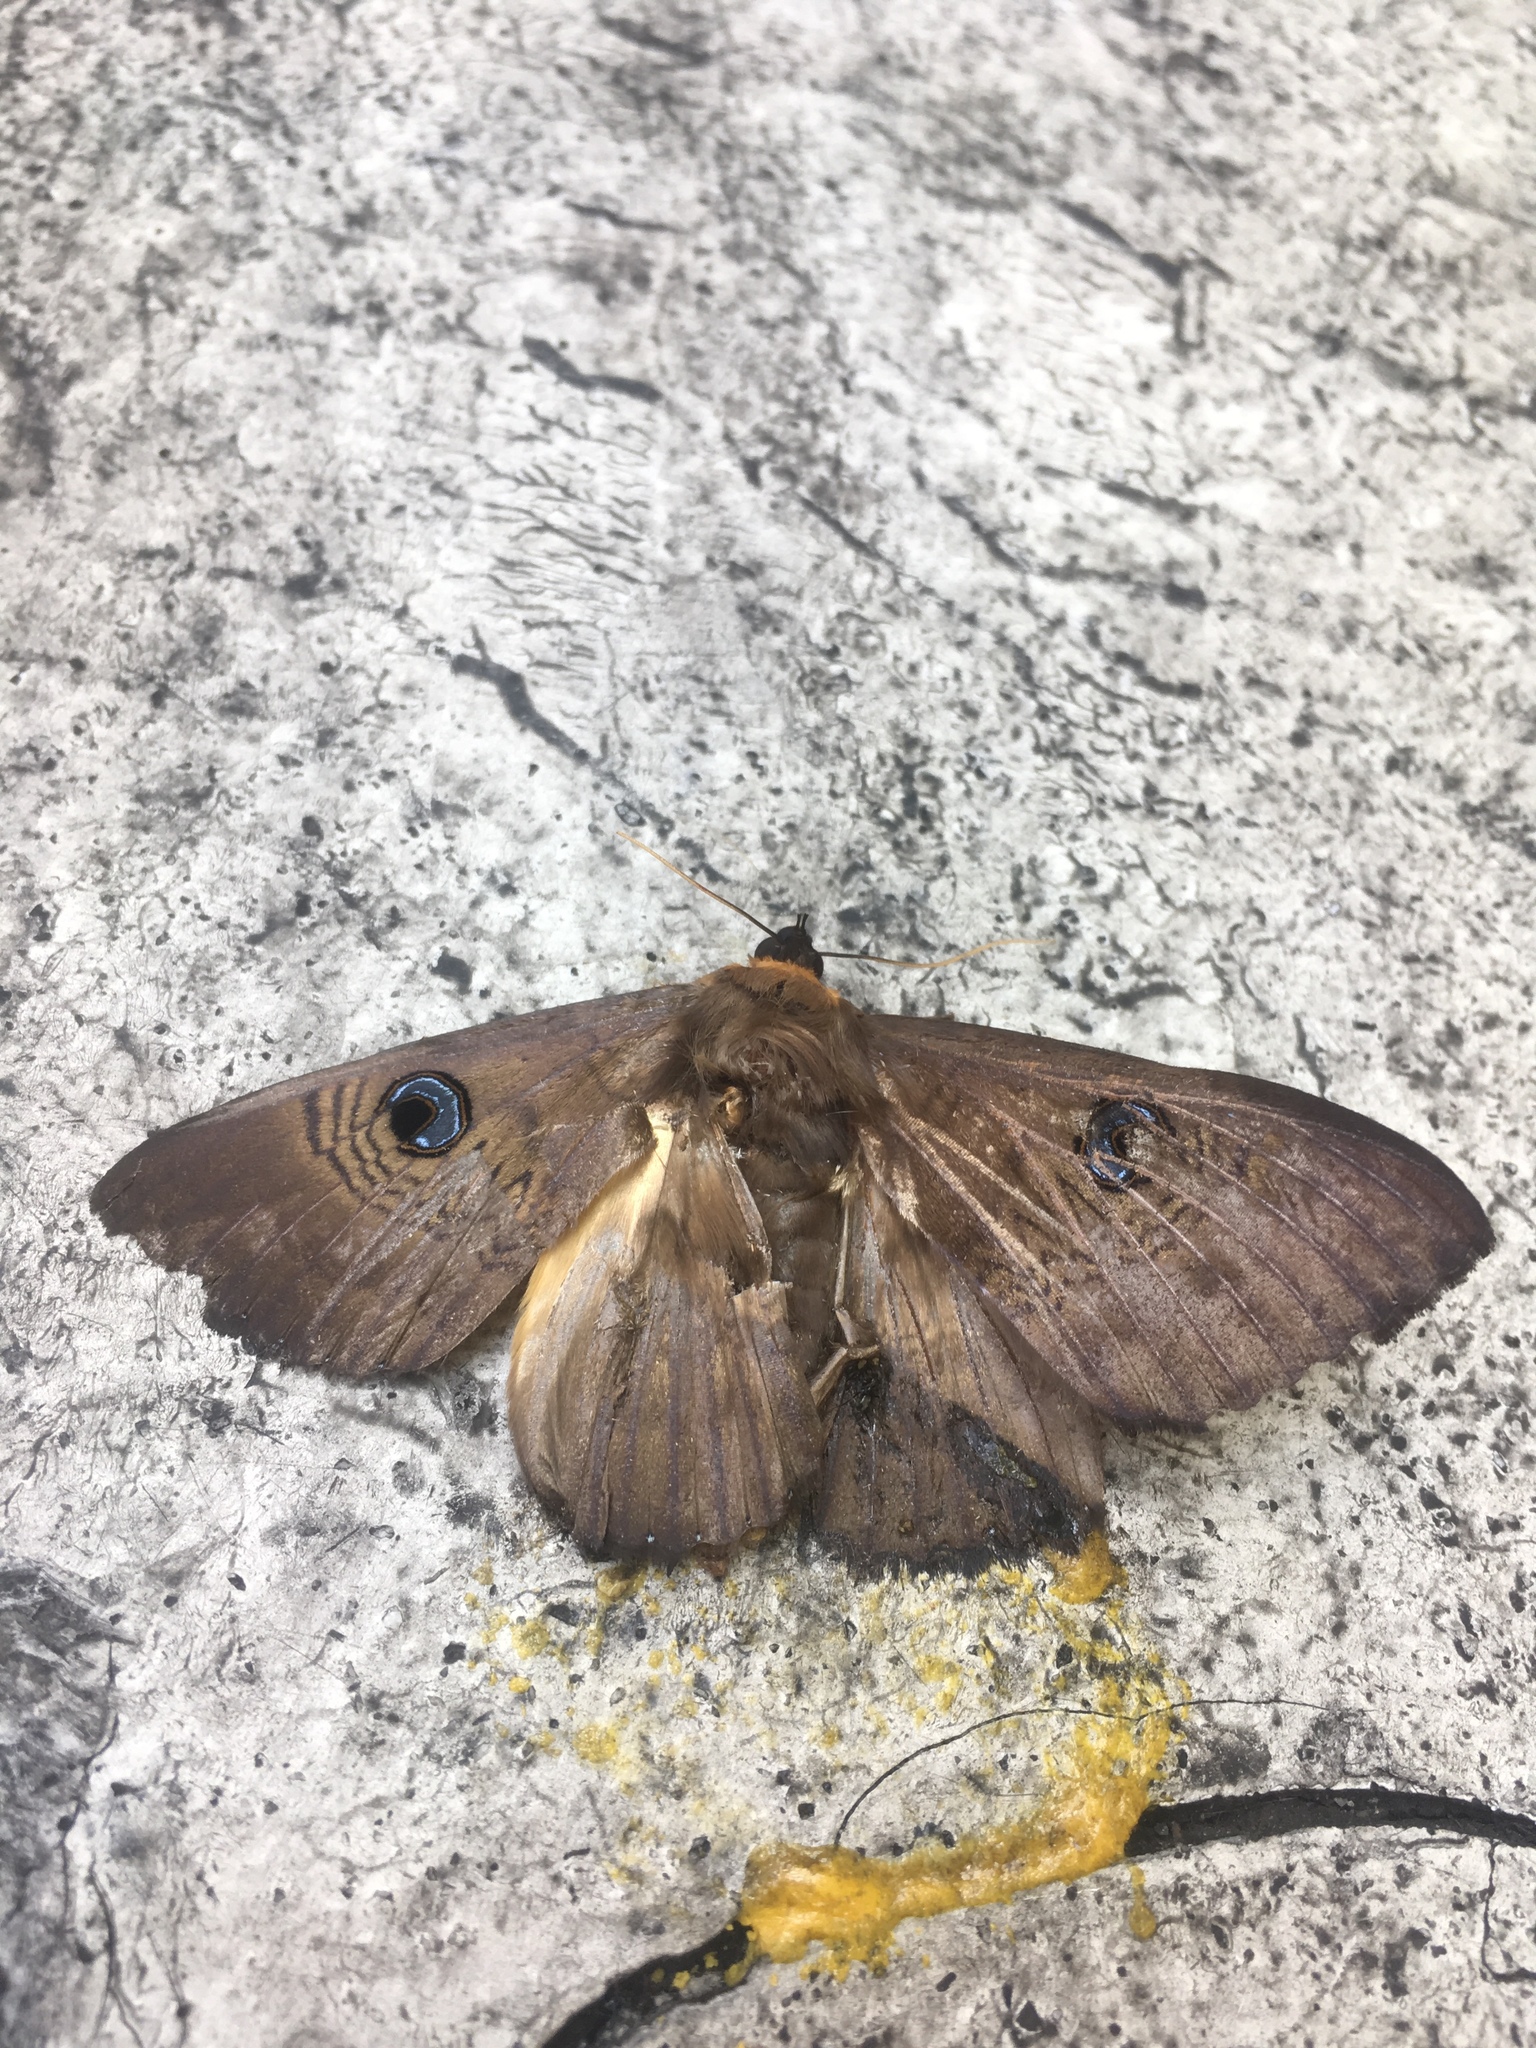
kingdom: Animalia
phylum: Arthropoda
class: Insecta
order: Lepidoptera
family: Erebidae
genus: Dasypodia
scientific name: Dasypodia selenophora
